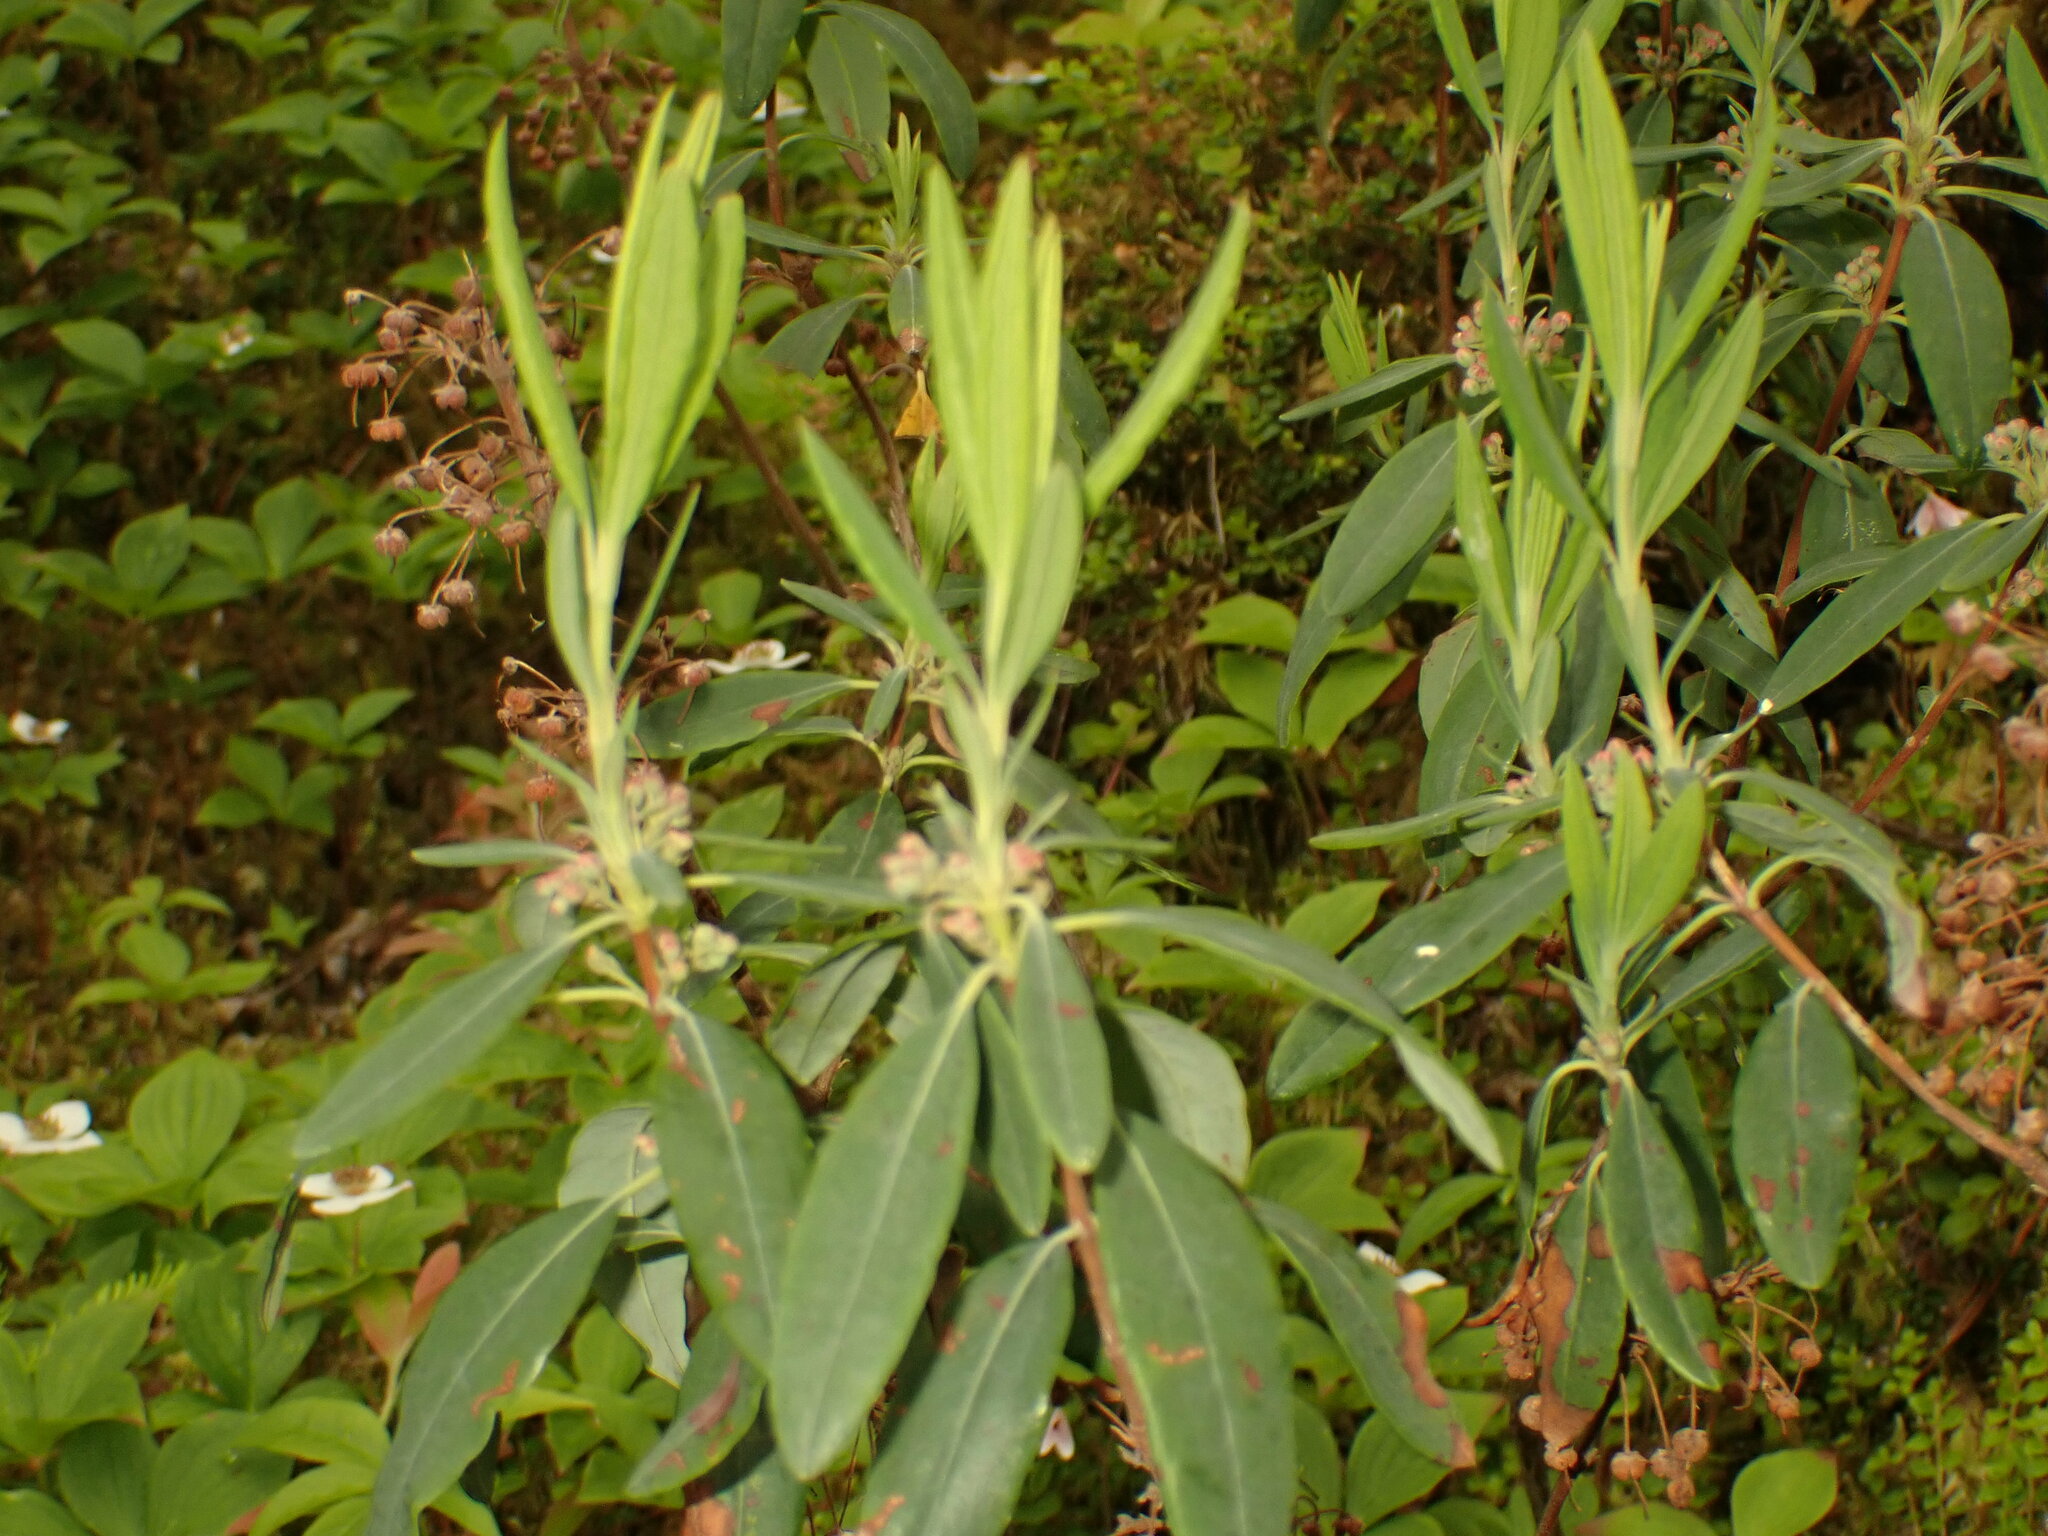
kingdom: Plantae
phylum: Tracheophyta
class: Magnoliopsida
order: Ericales
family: Ericaceae
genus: Kalmia
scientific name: Kalmia angustifolia
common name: Sheep-laurel
